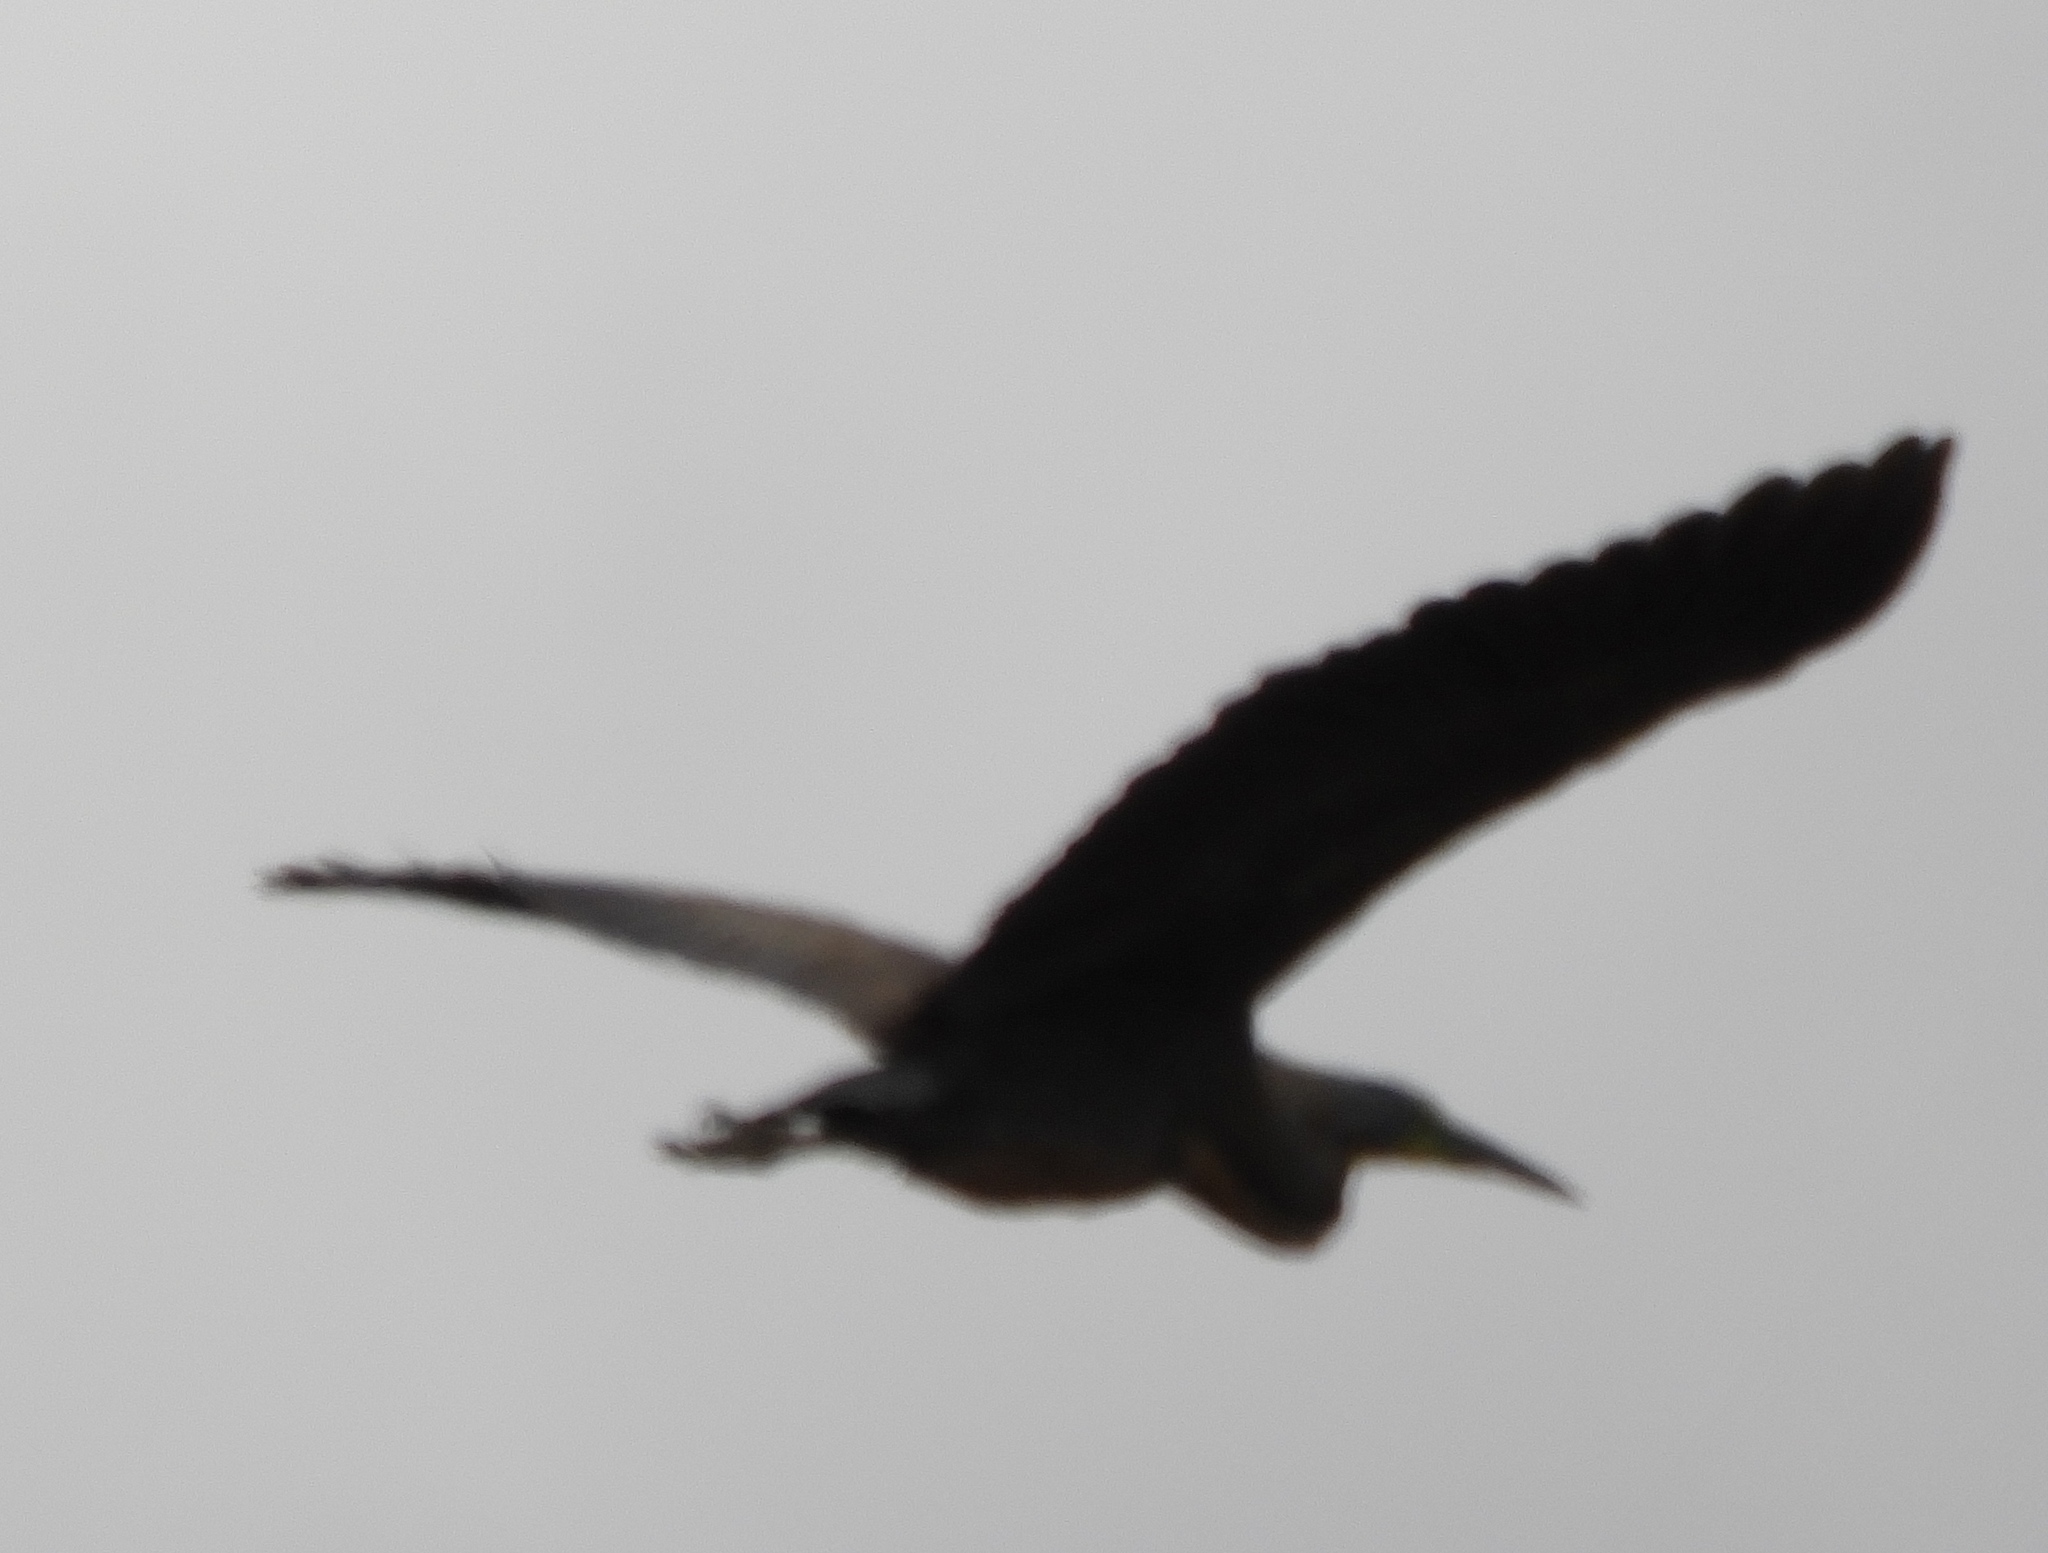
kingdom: Animalia
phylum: Chordata
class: Aves
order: Pelecaniformes
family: Ardeidae
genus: Tigrisoma
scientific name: Tigrisoma mexicanum
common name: Bare-throated tiger-heron
